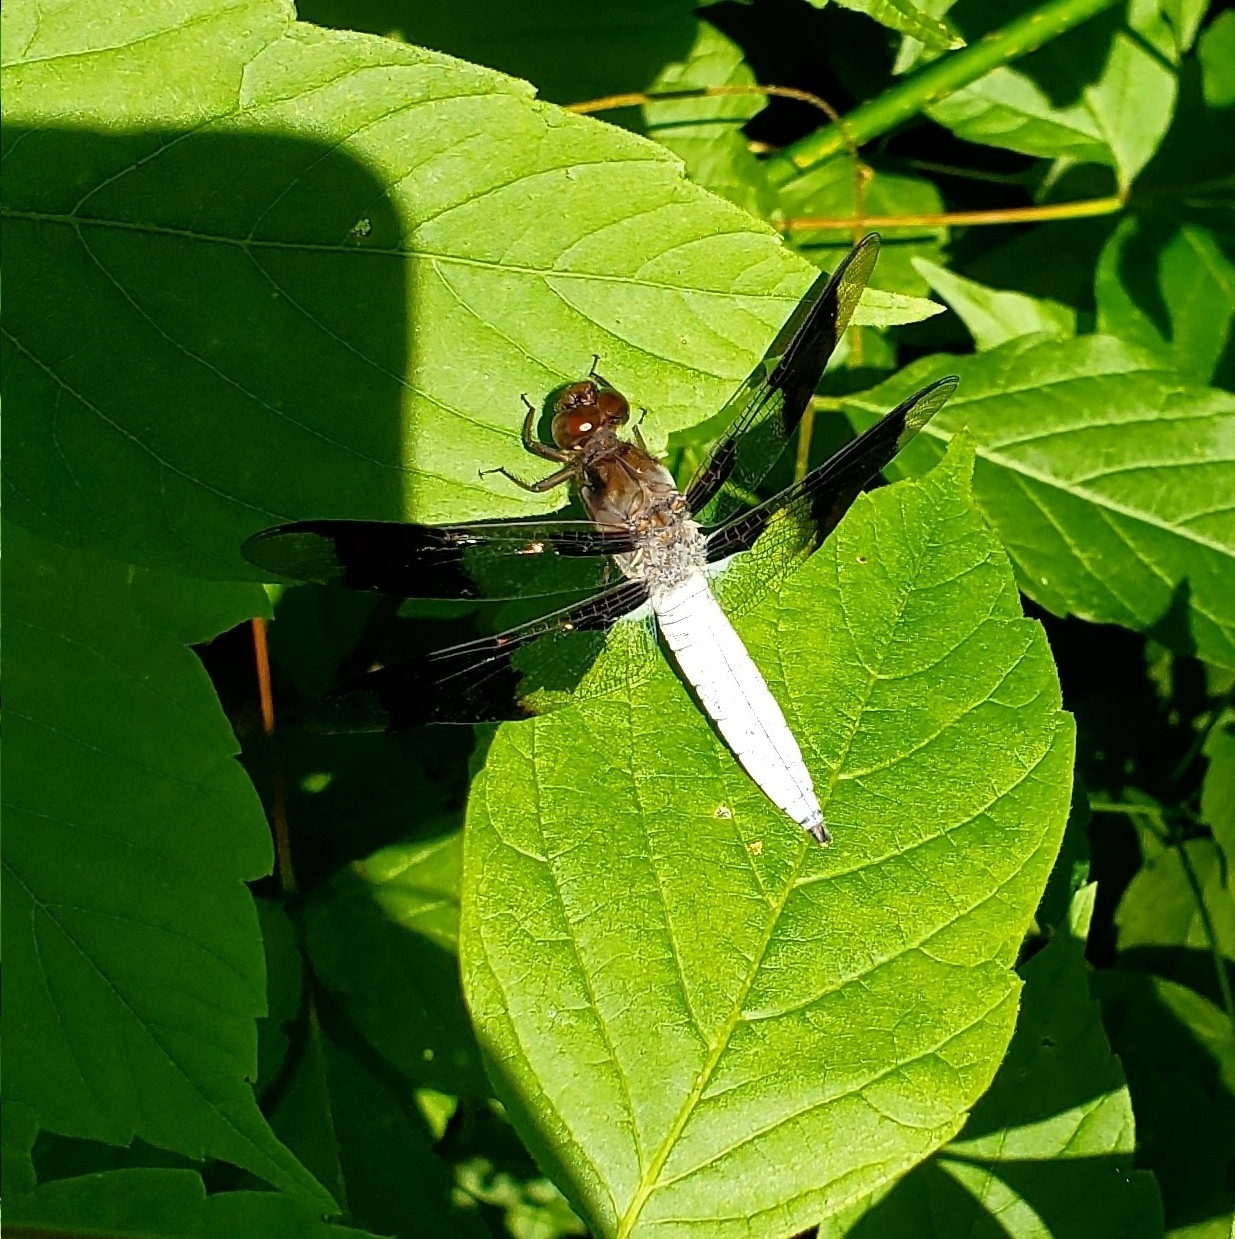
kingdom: Animalia
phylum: Arthropoda
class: Insecta
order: Odonata
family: Libellulidae
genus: Plathemis
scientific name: Plathemis lydia
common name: Common whitetail
